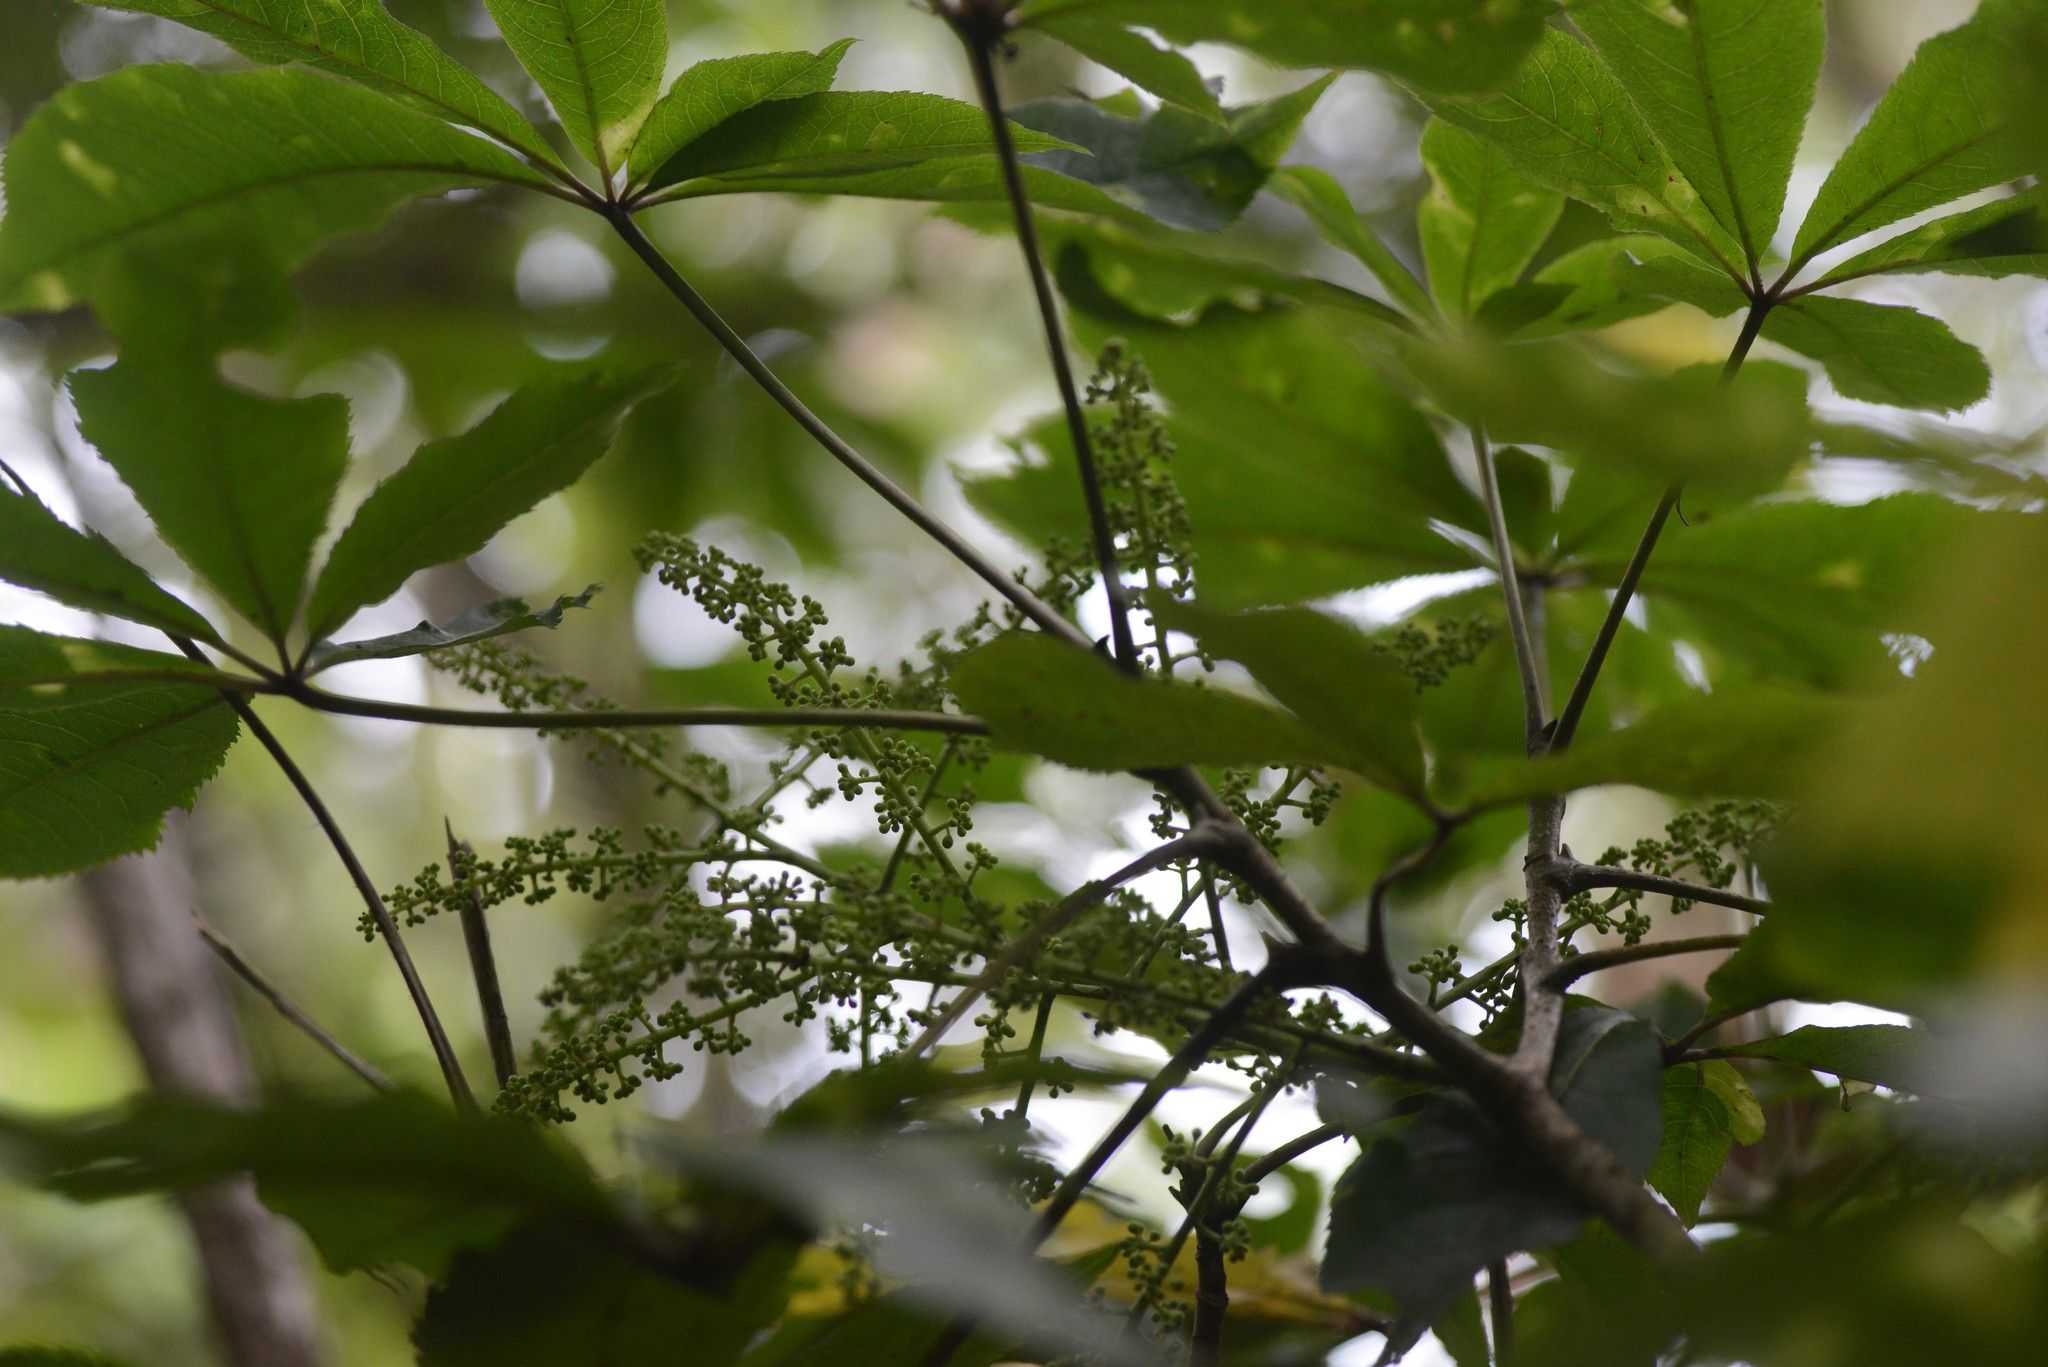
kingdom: Plantae
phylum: Tracheophyta
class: Magnoliopsida
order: Apiales
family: Araliaceae
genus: Schefflera
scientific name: Schefflera digitata
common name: Pate
